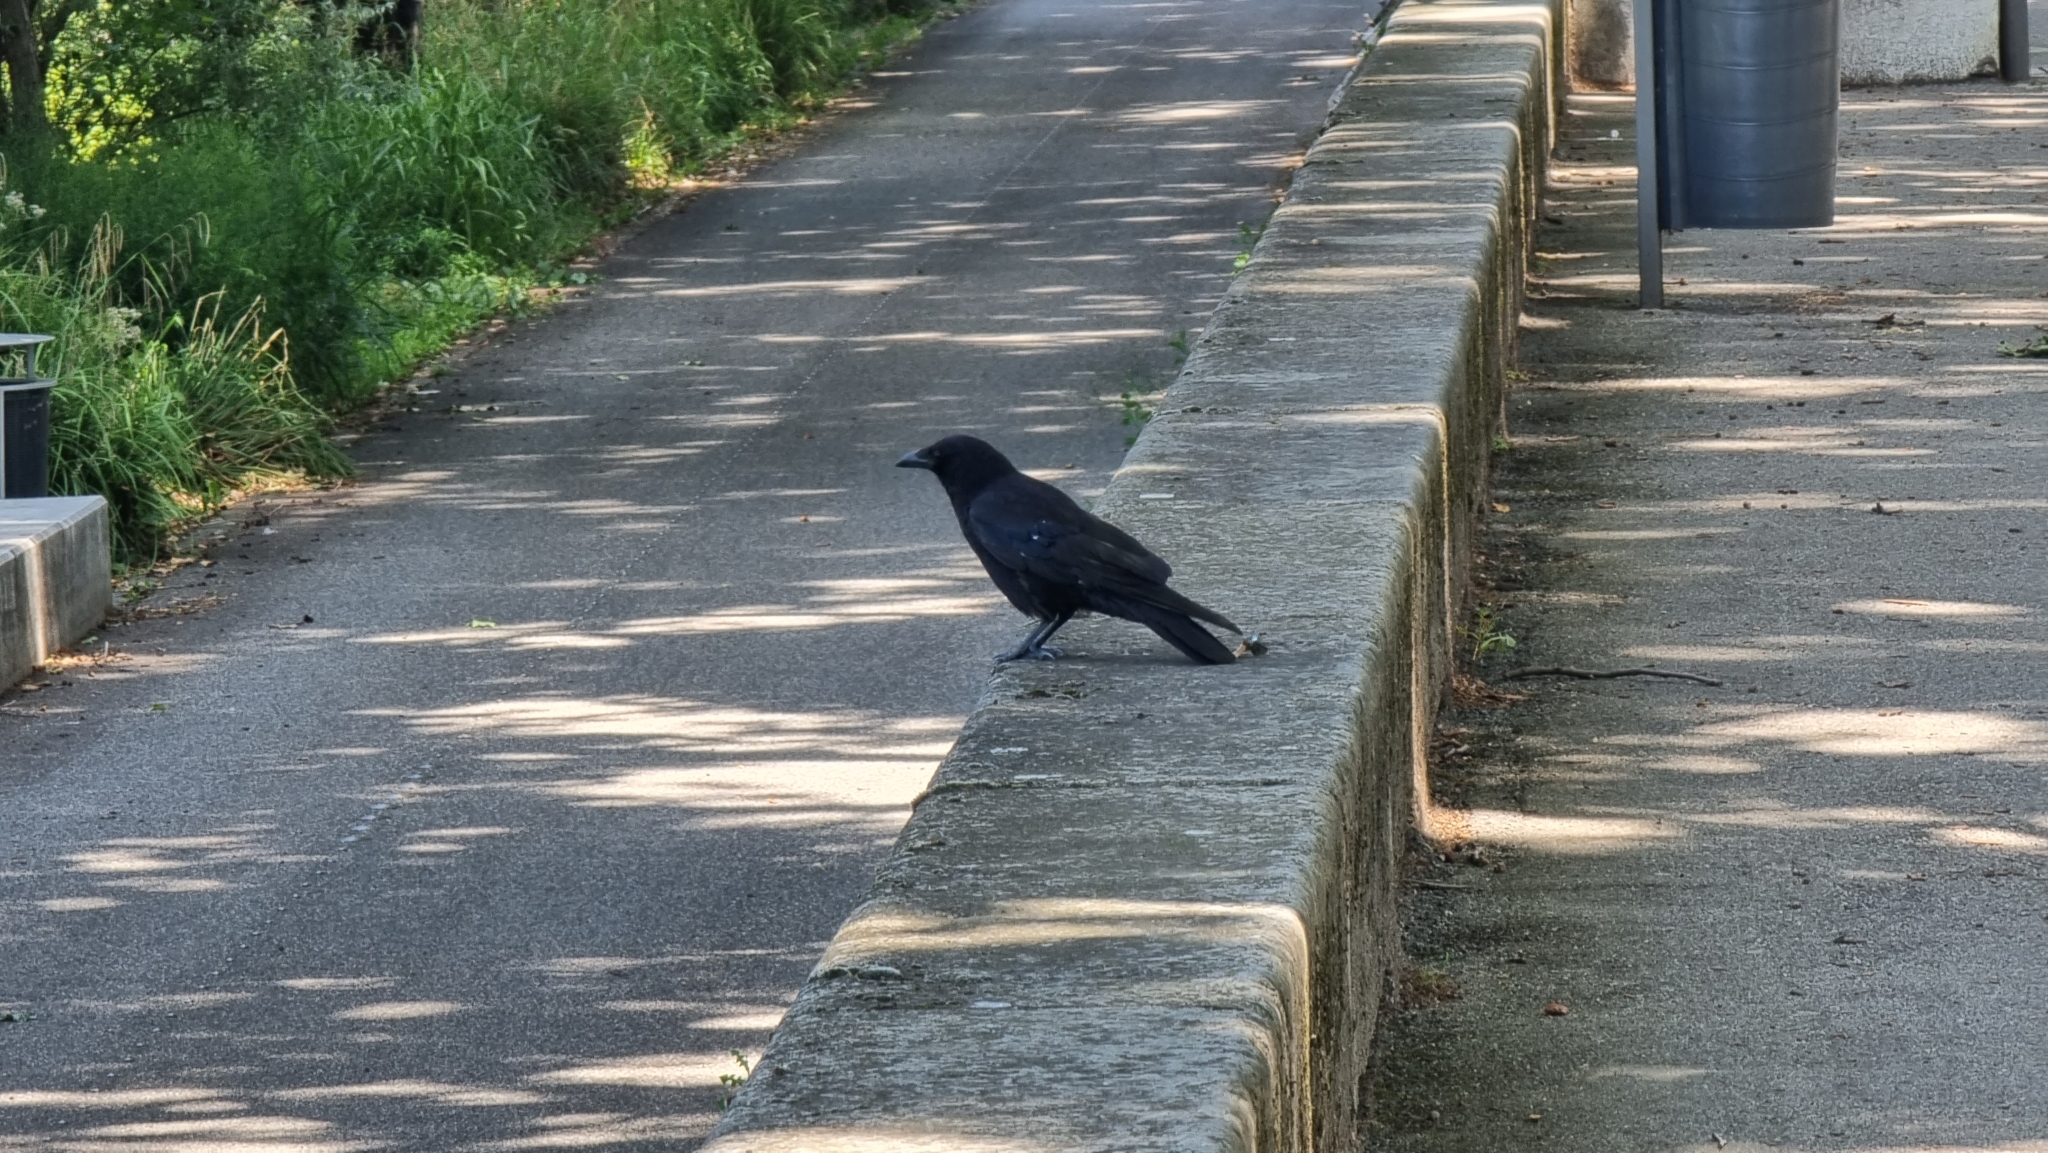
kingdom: Animalia
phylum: Chordata
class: Aves
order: Passeriformes
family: Corvidae
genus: Corvus
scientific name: Corvus corone
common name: Carrion crow
